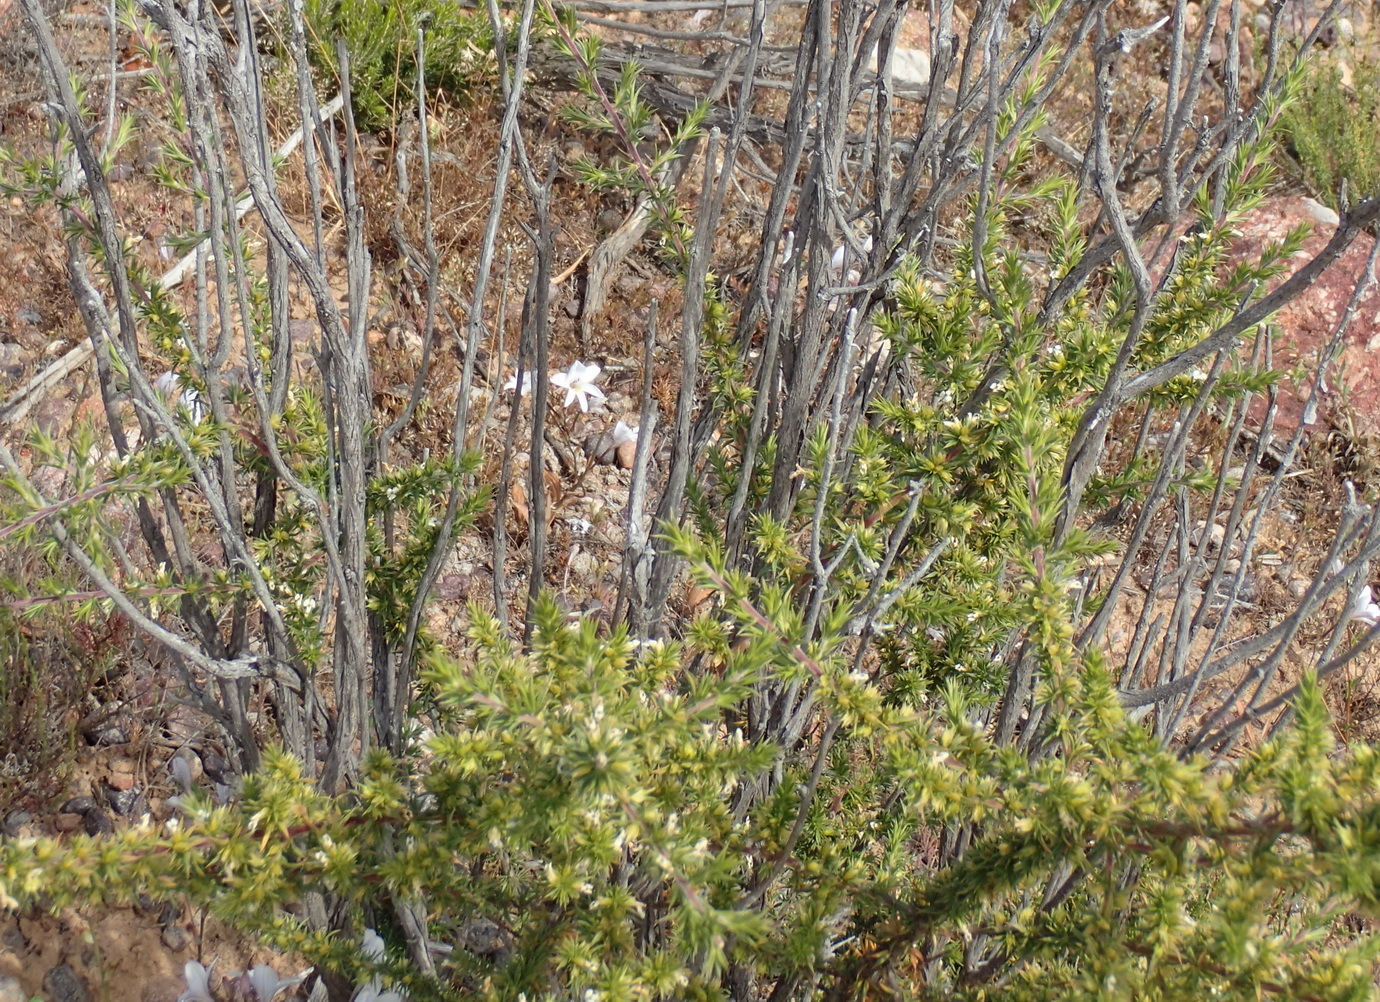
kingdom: Plantae
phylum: Tracheophyta
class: Magnoliopsida
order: Fabales
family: Polygalaceae
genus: Muraltia
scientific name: Muraltia ericifolia
